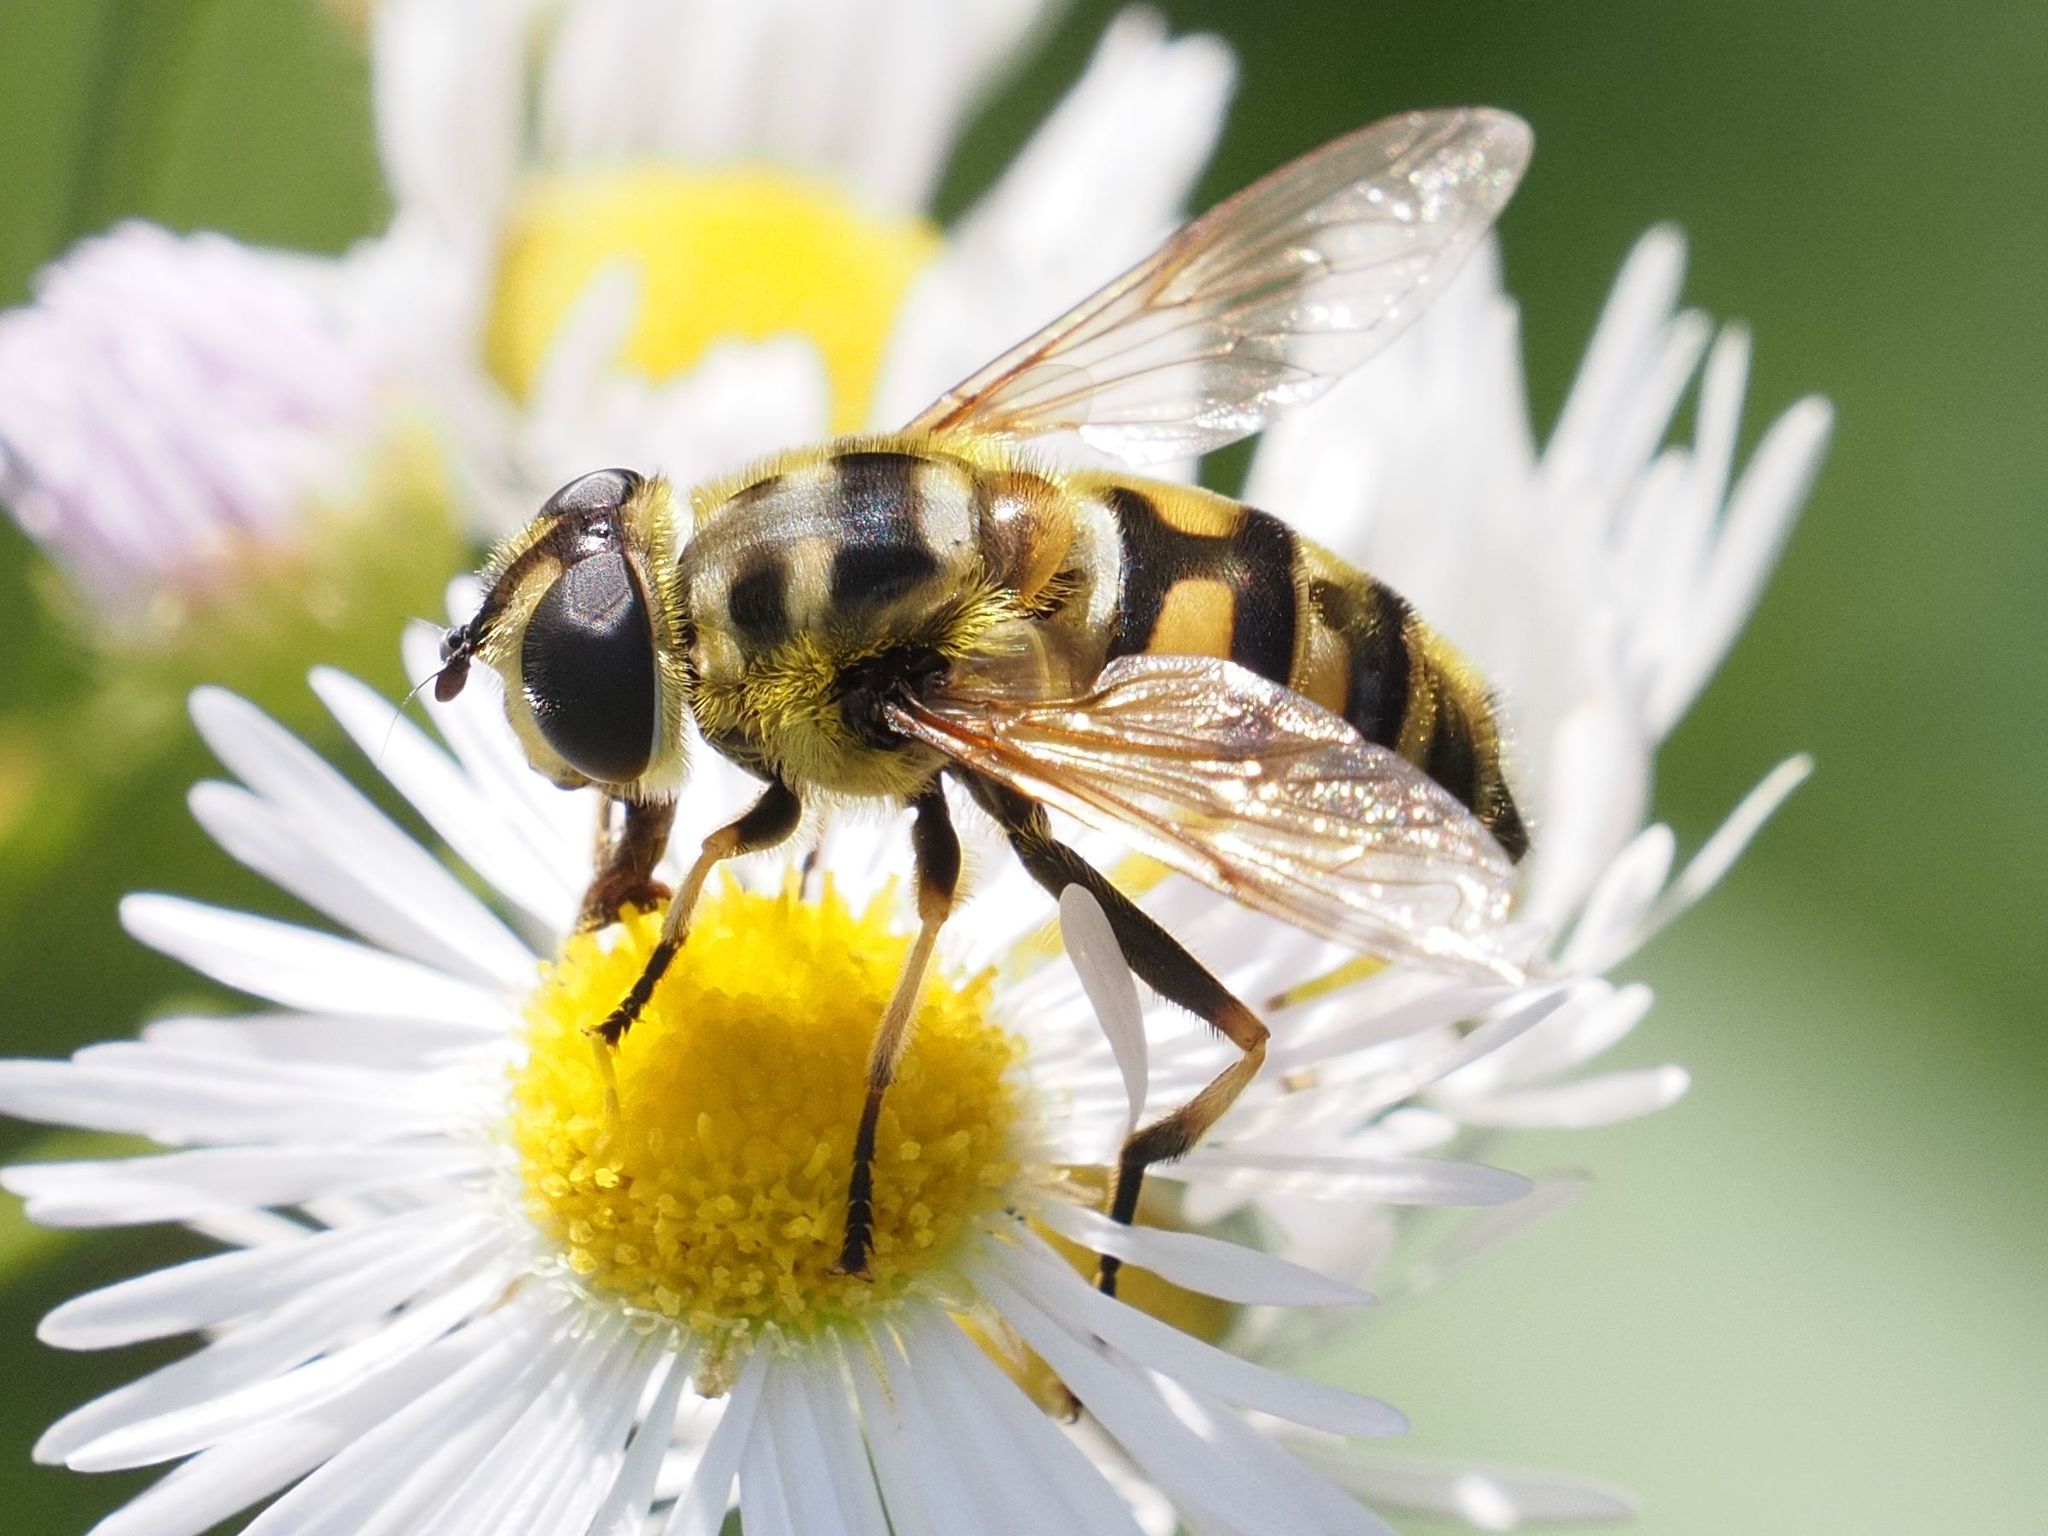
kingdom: Animalia
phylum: Arthropoda
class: Insecta
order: Diptera
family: Syrphidae
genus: Myathropa
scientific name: Myathropa florea
